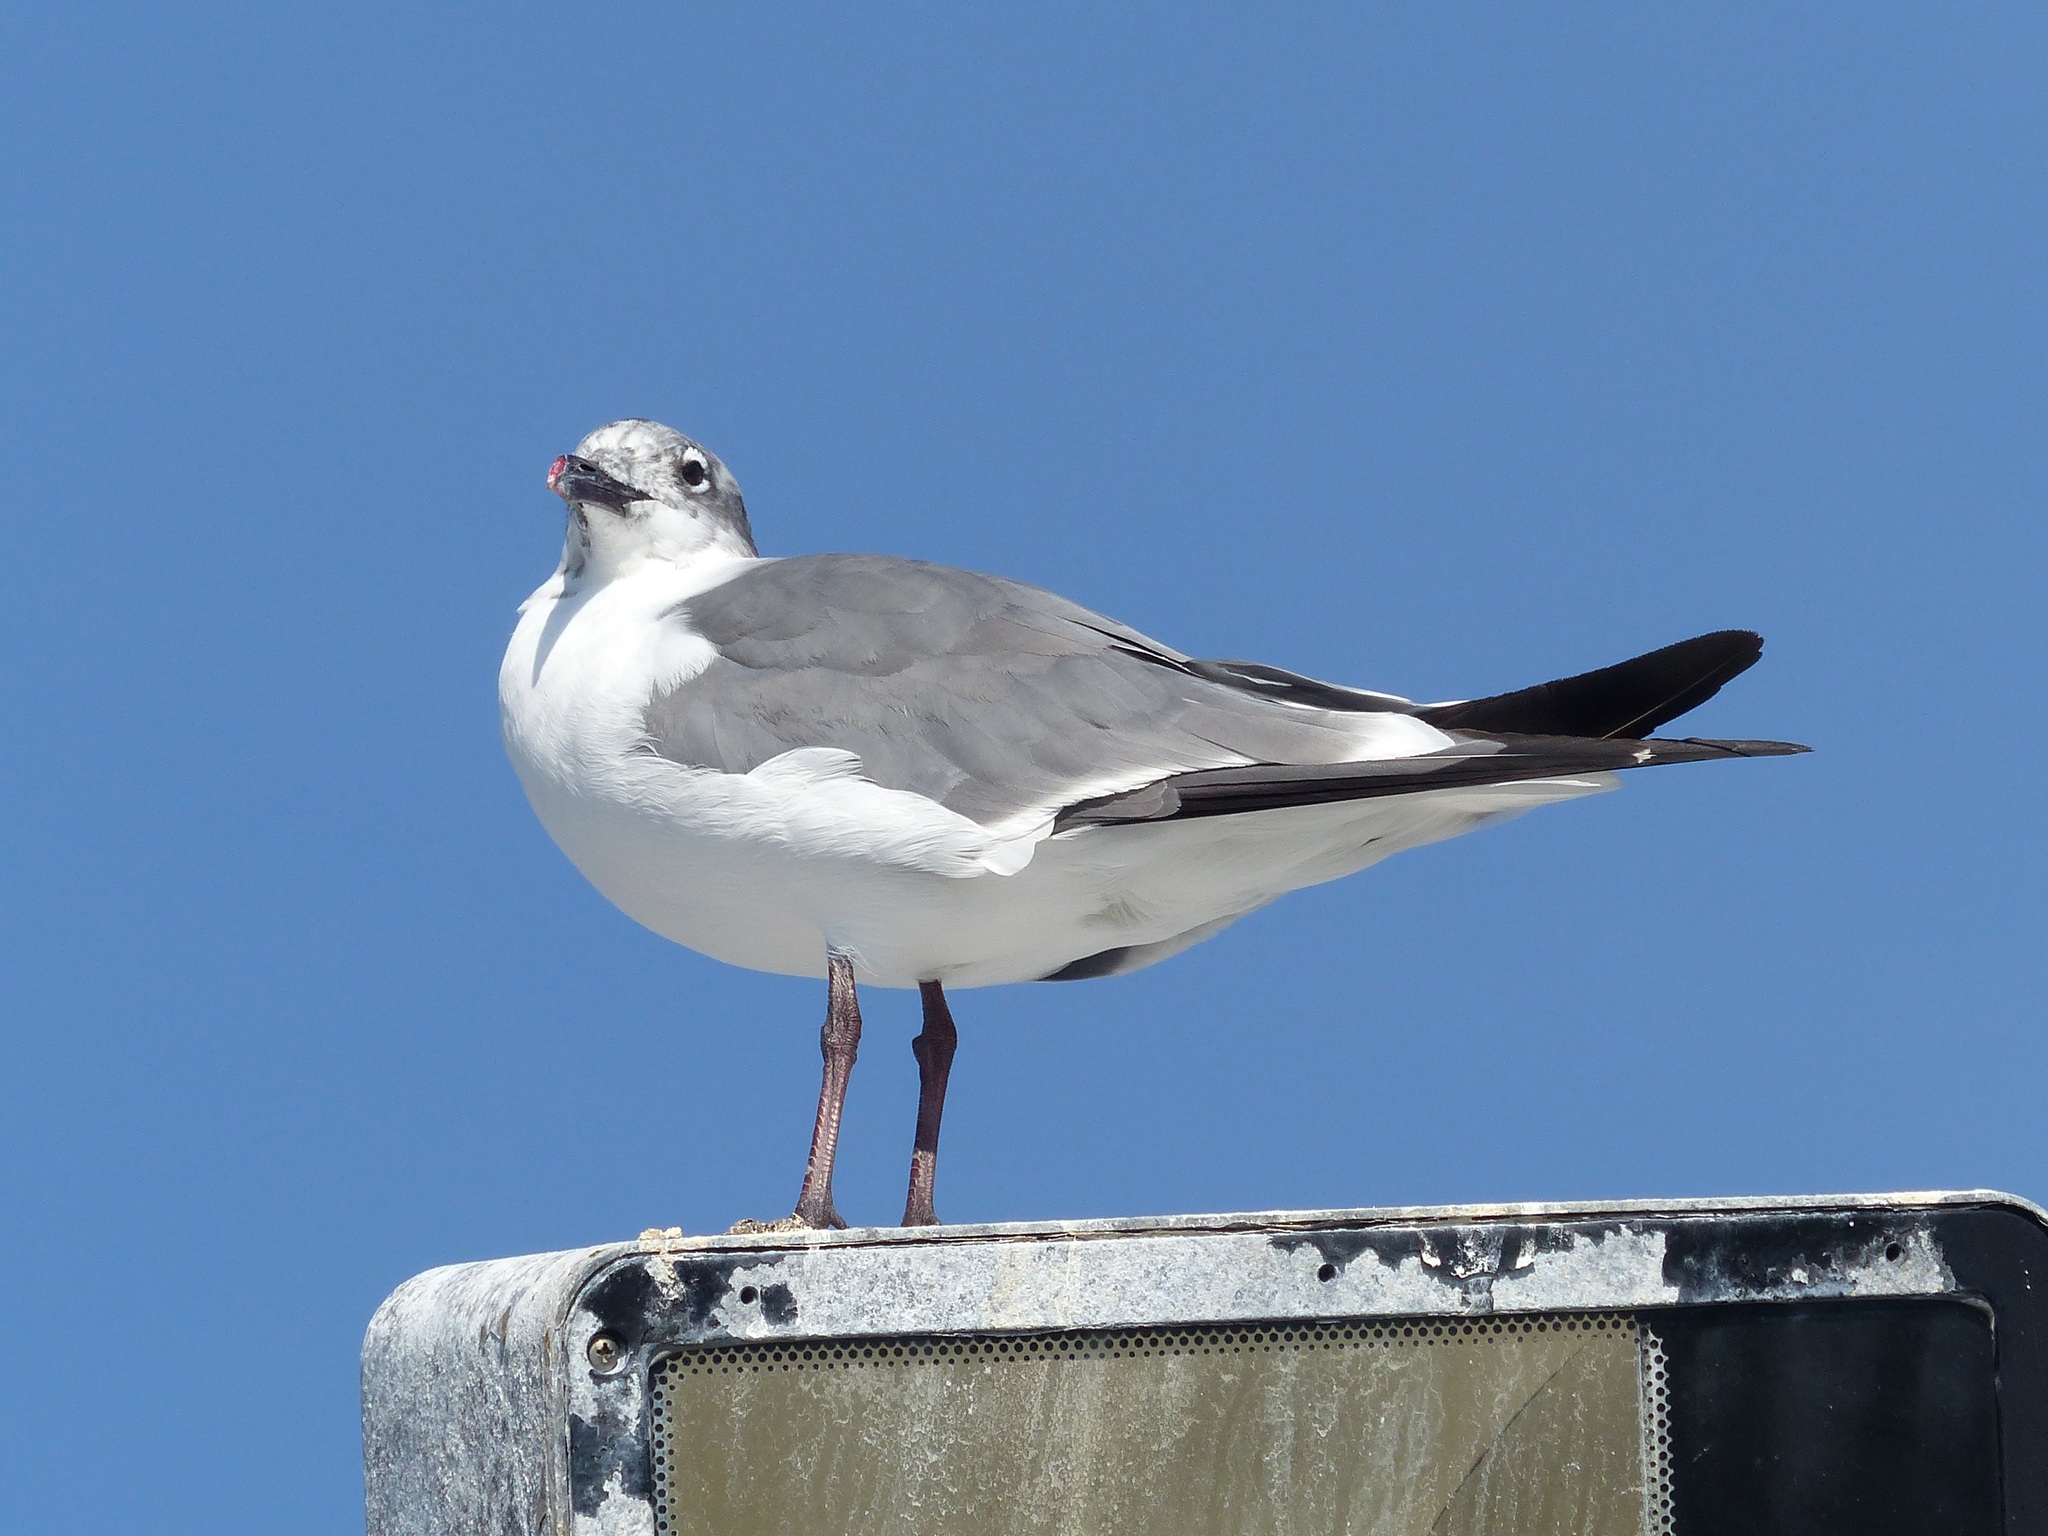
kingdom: Animalia
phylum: Chordata
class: Aves
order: Charadriiformes
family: Laridae
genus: Leucophaeus
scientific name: Leucophaeus atricilla
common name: Laughing gull
